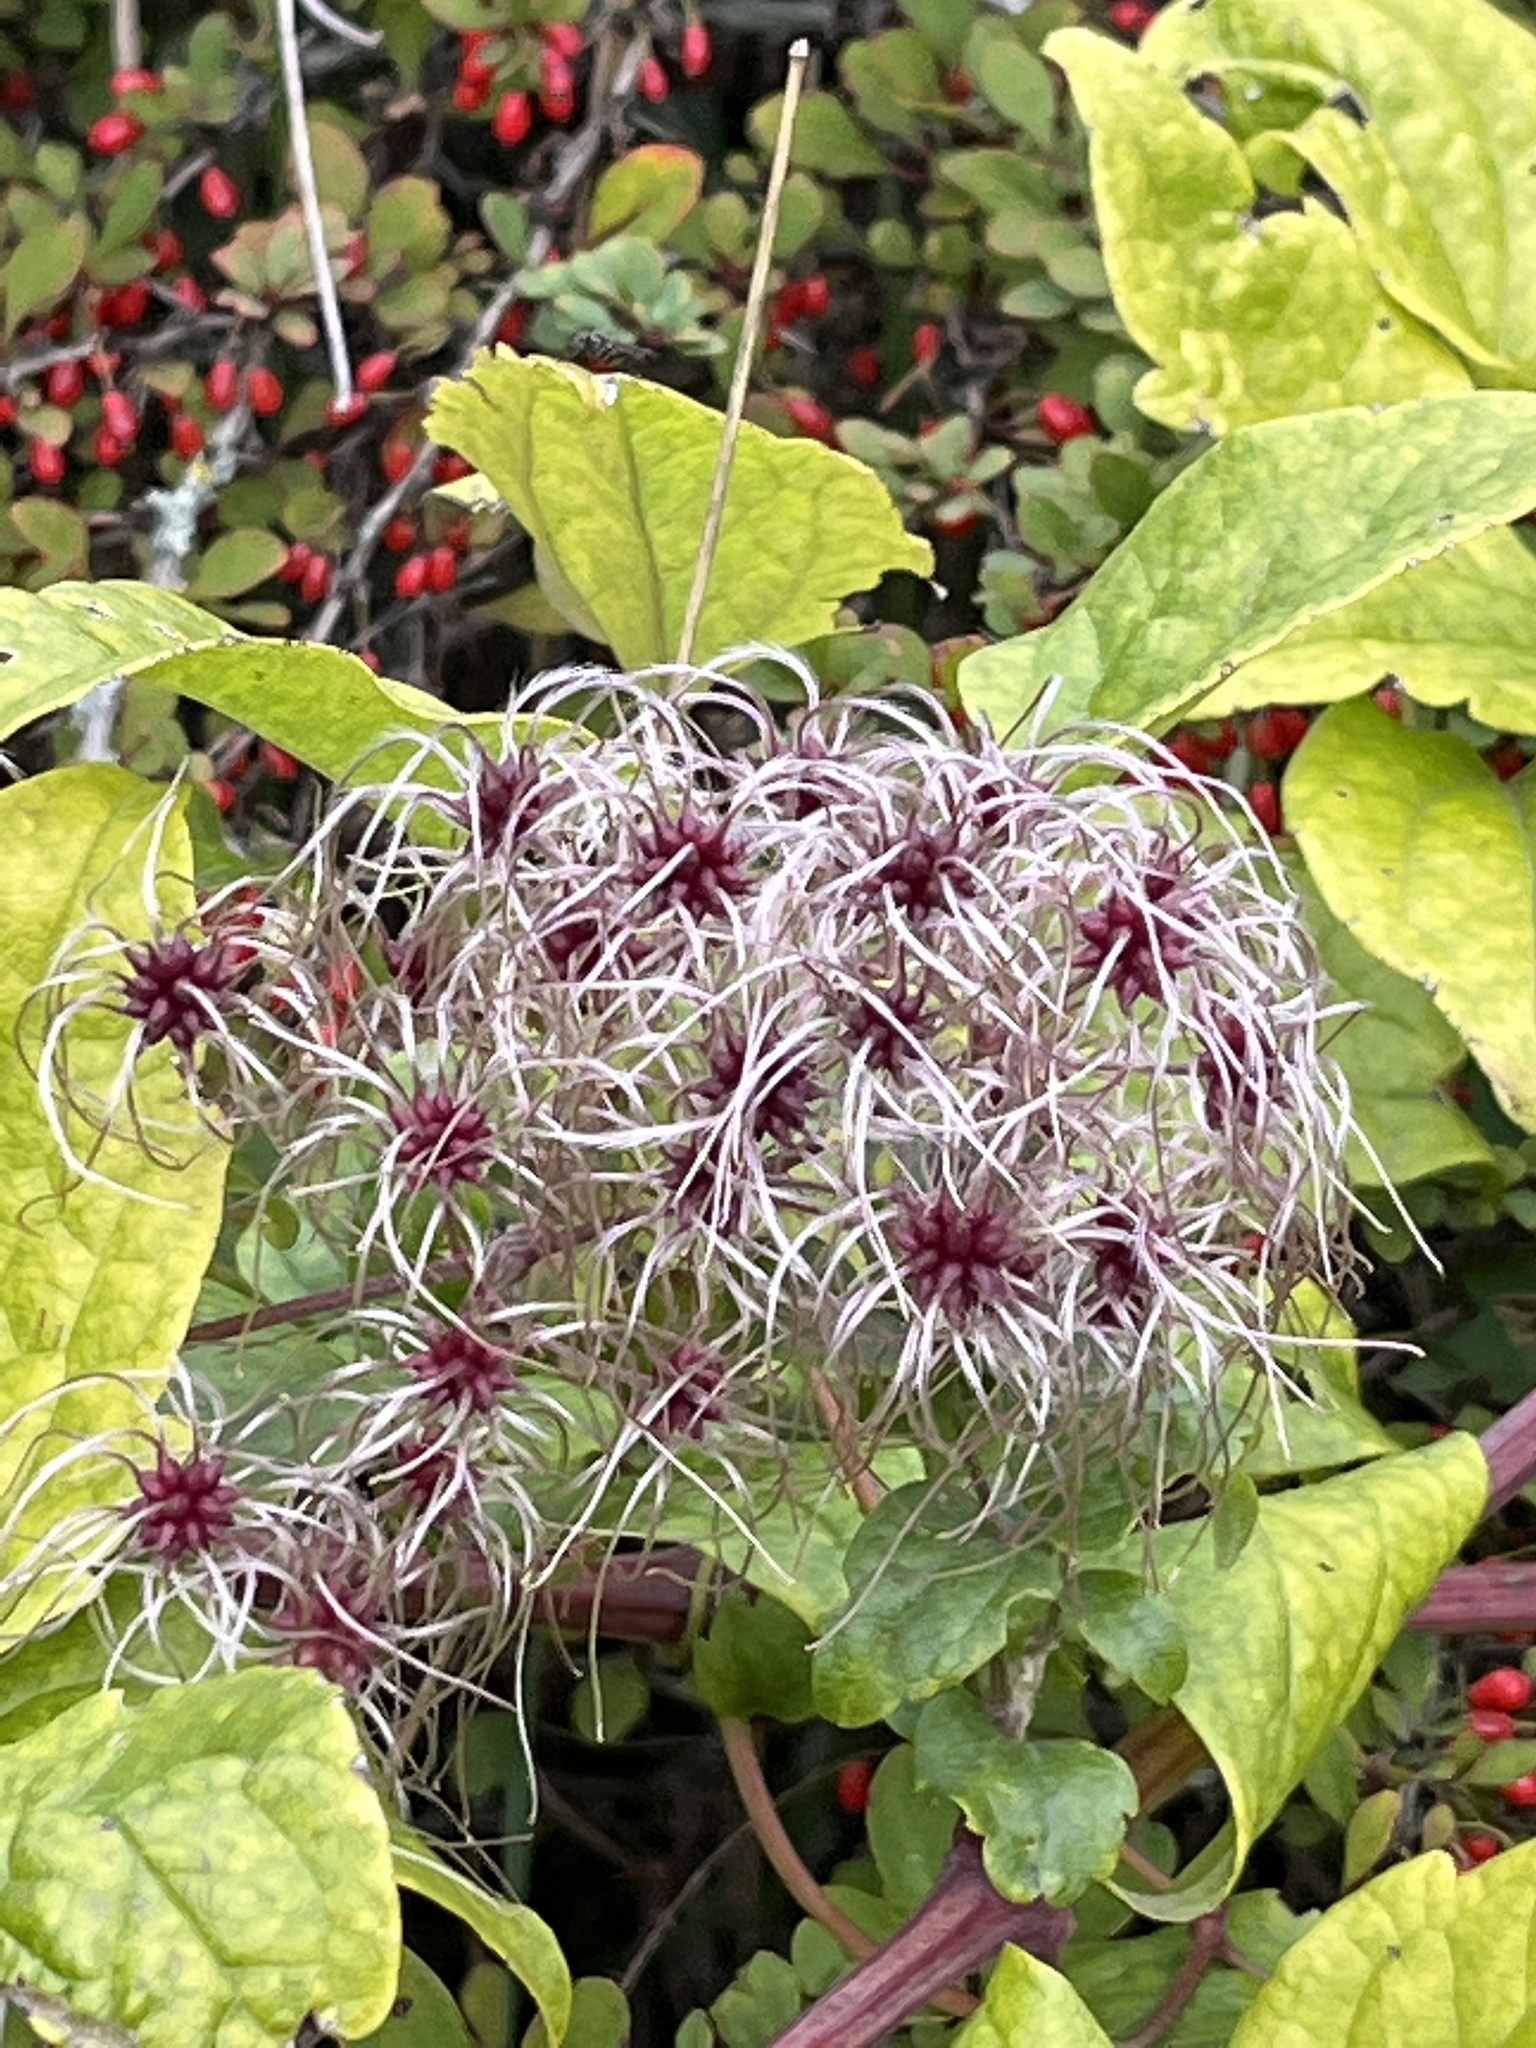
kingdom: Plantae
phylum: Tracheophyta
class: Magnoliopsida
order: Ranunculales
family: Ranunculaceae
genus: Clematis
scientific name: Clematis vitalba
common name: Evergreen clematis
